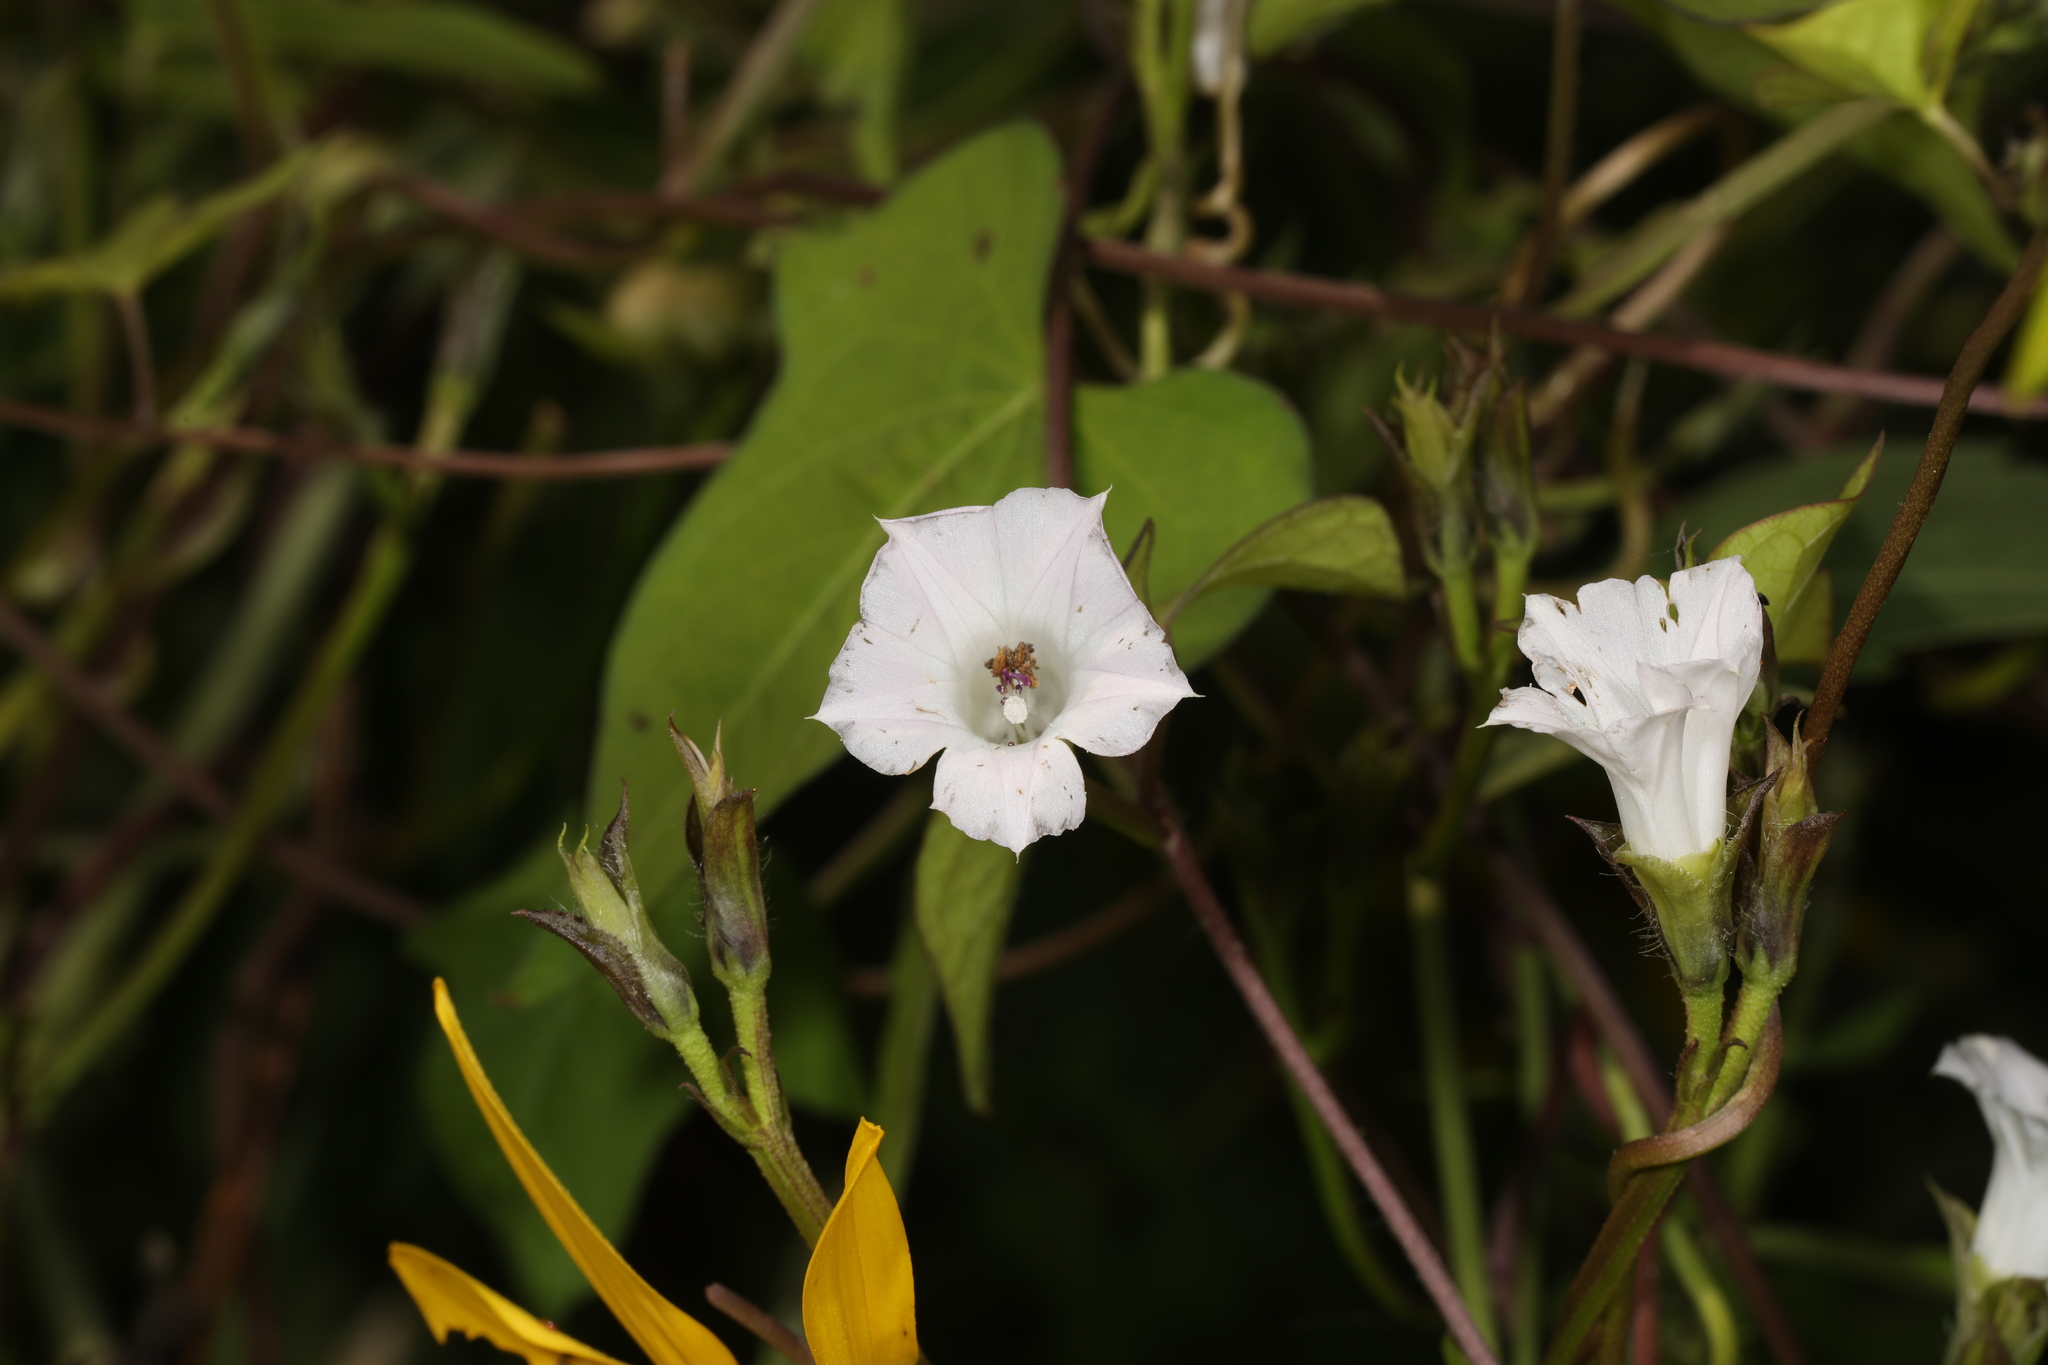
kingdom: Plantae
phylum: Tracheophyta
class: Magnoliopsida
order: Solanales
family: Convolvulaceae
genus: Ipomoea
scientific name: Ipomoea lacunosa
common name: White morning-glory
